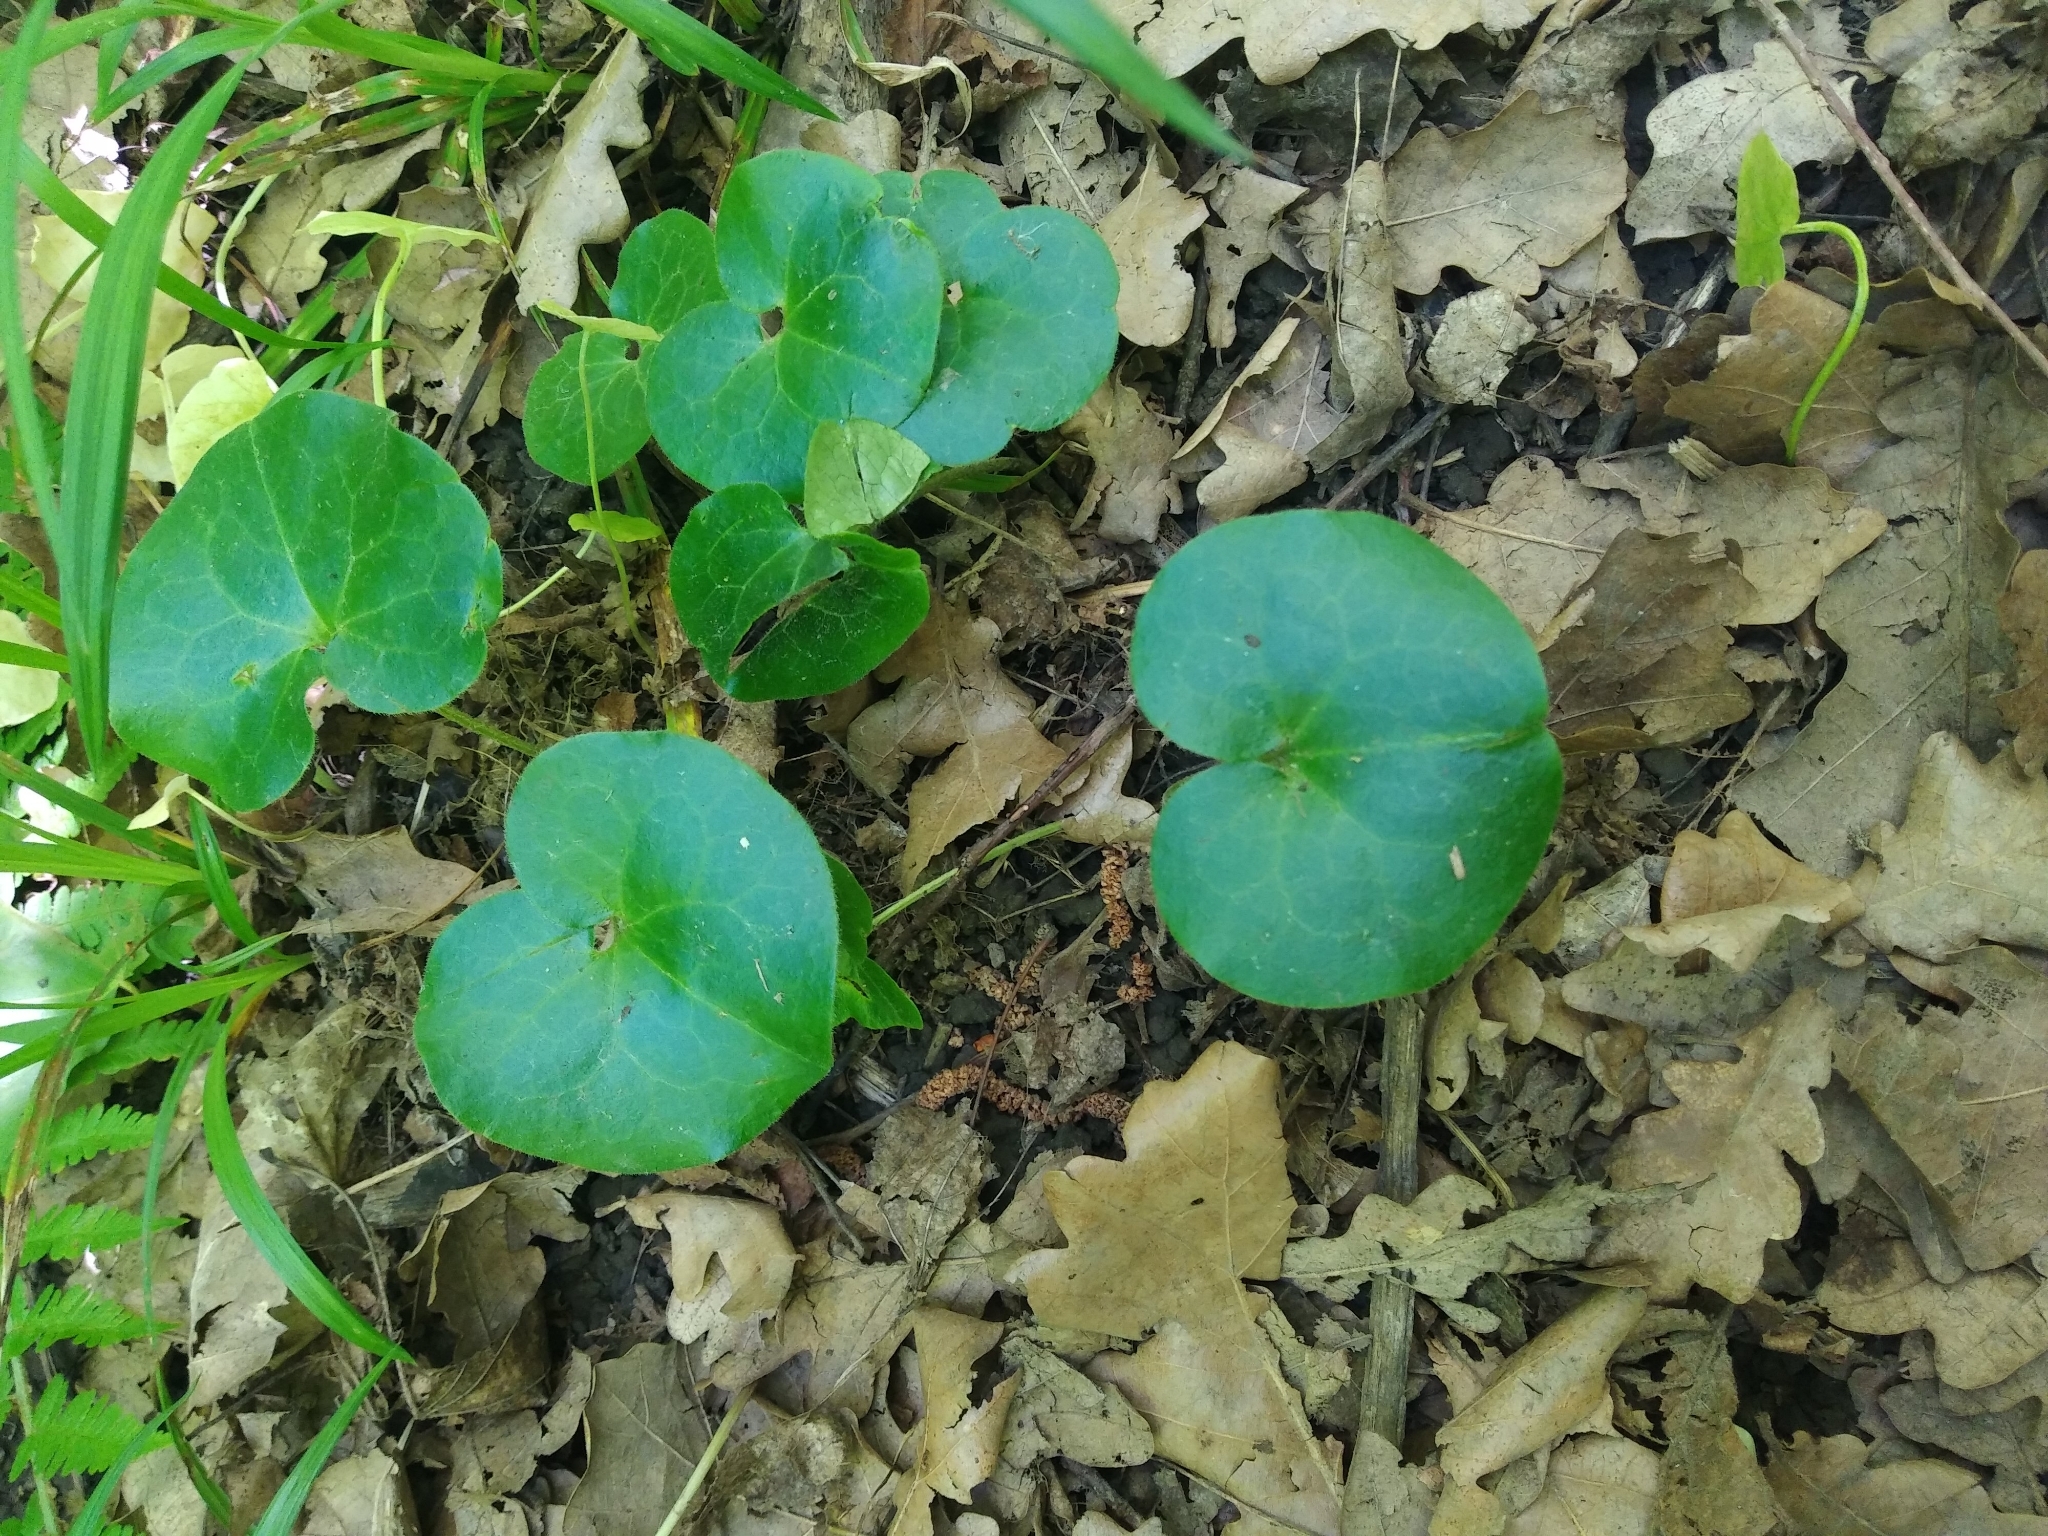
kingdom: Plantae
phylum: Tracheophyta
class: Magnoliopsida
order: Piperales
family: Aristolochiaceae
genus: Asarum
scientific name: Asarum europaeum
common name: Asarabacca
